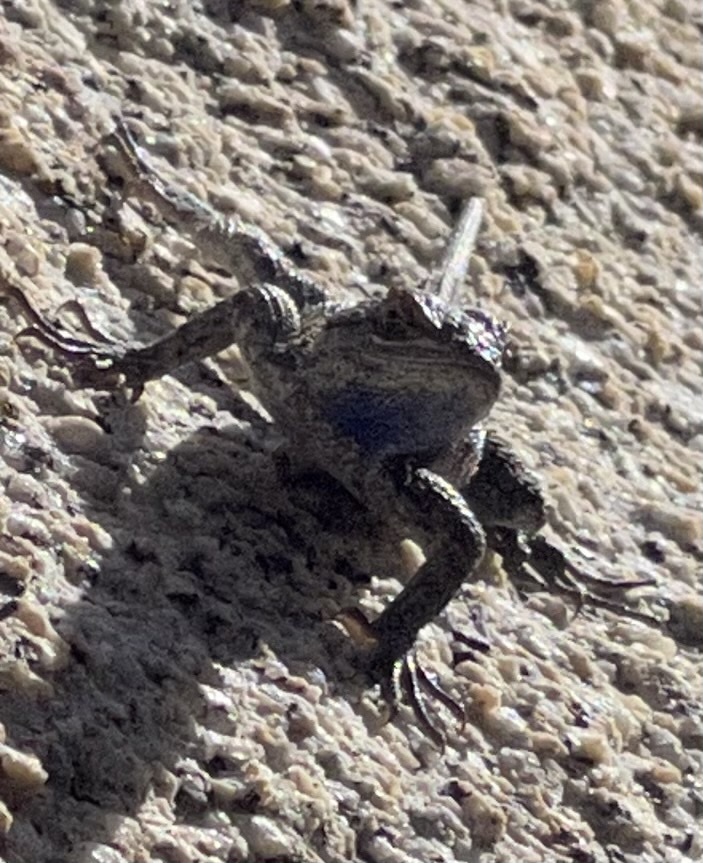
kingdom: Animalia
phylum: Chordata
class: Squamata
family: Phrynosomatidae
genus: Sceloporus
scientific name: Sceloporus occidentalis
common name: Western fence lizard
